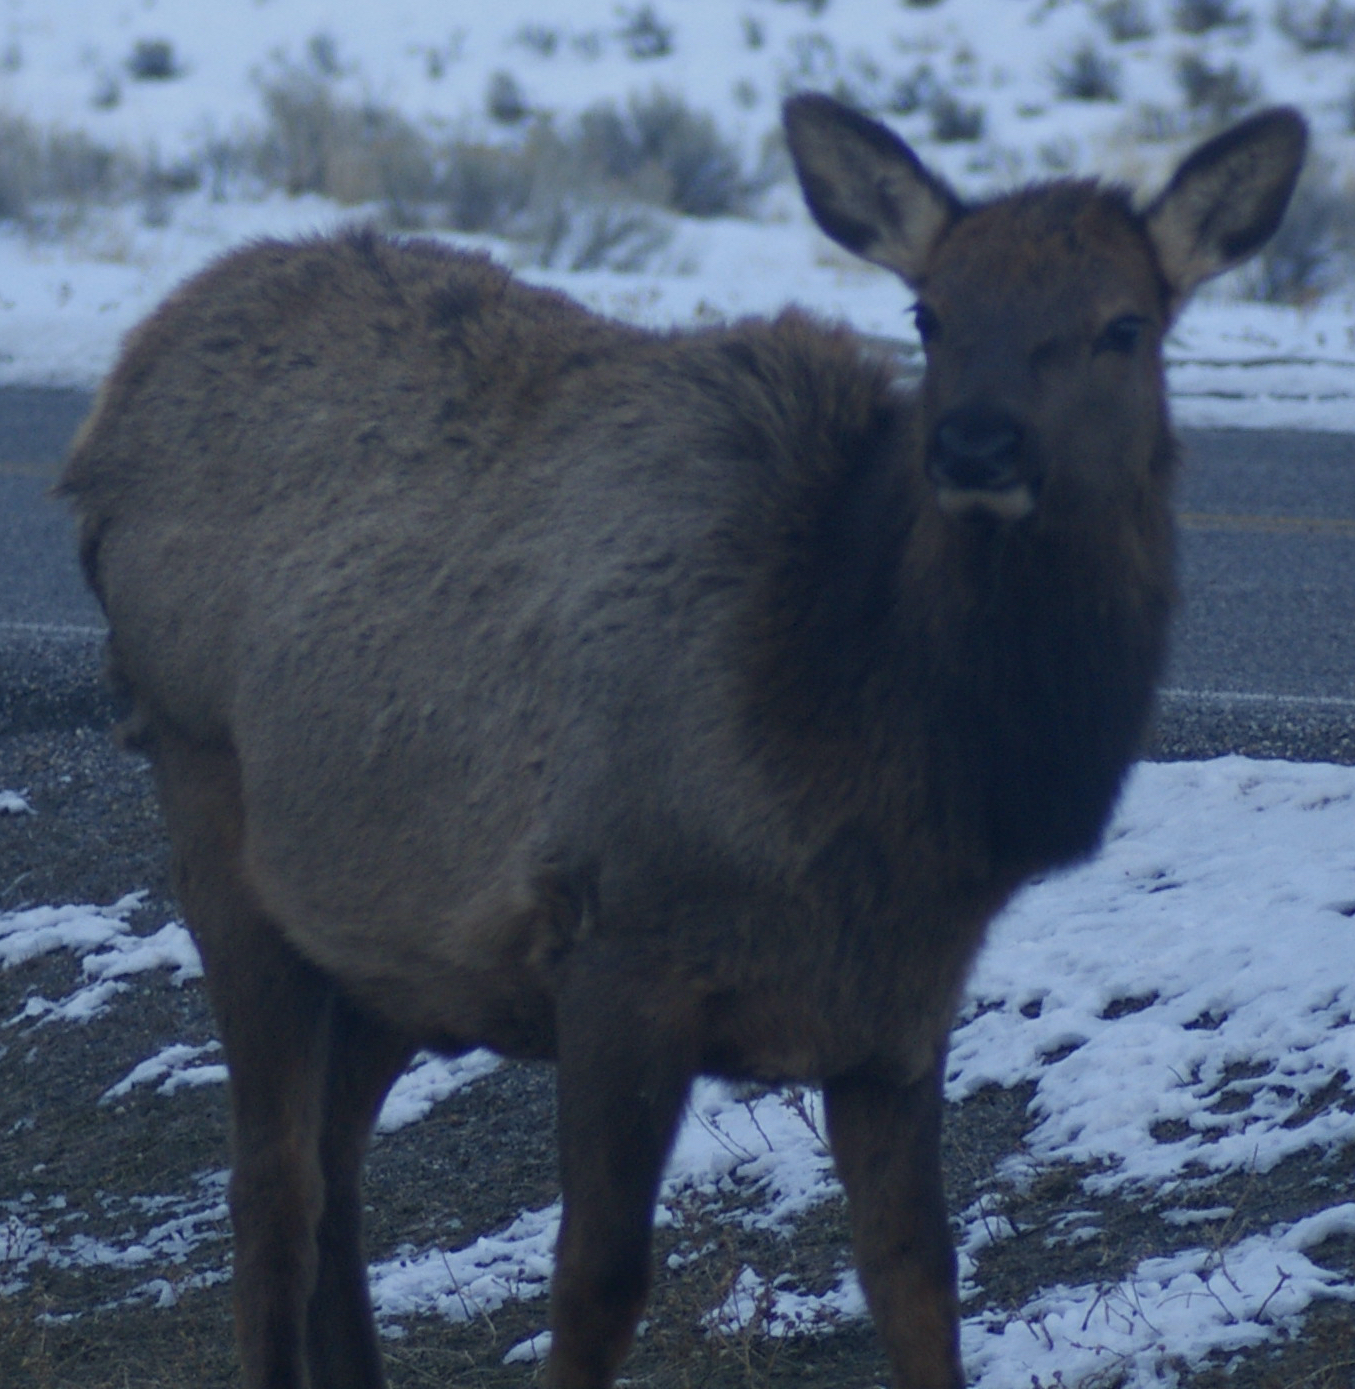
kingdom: Animalia
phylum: Chordata
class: Mammalia
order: Artiodactyla
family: Cervidae
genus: Cervus
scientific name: Cervus elaphus
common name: Red deer
